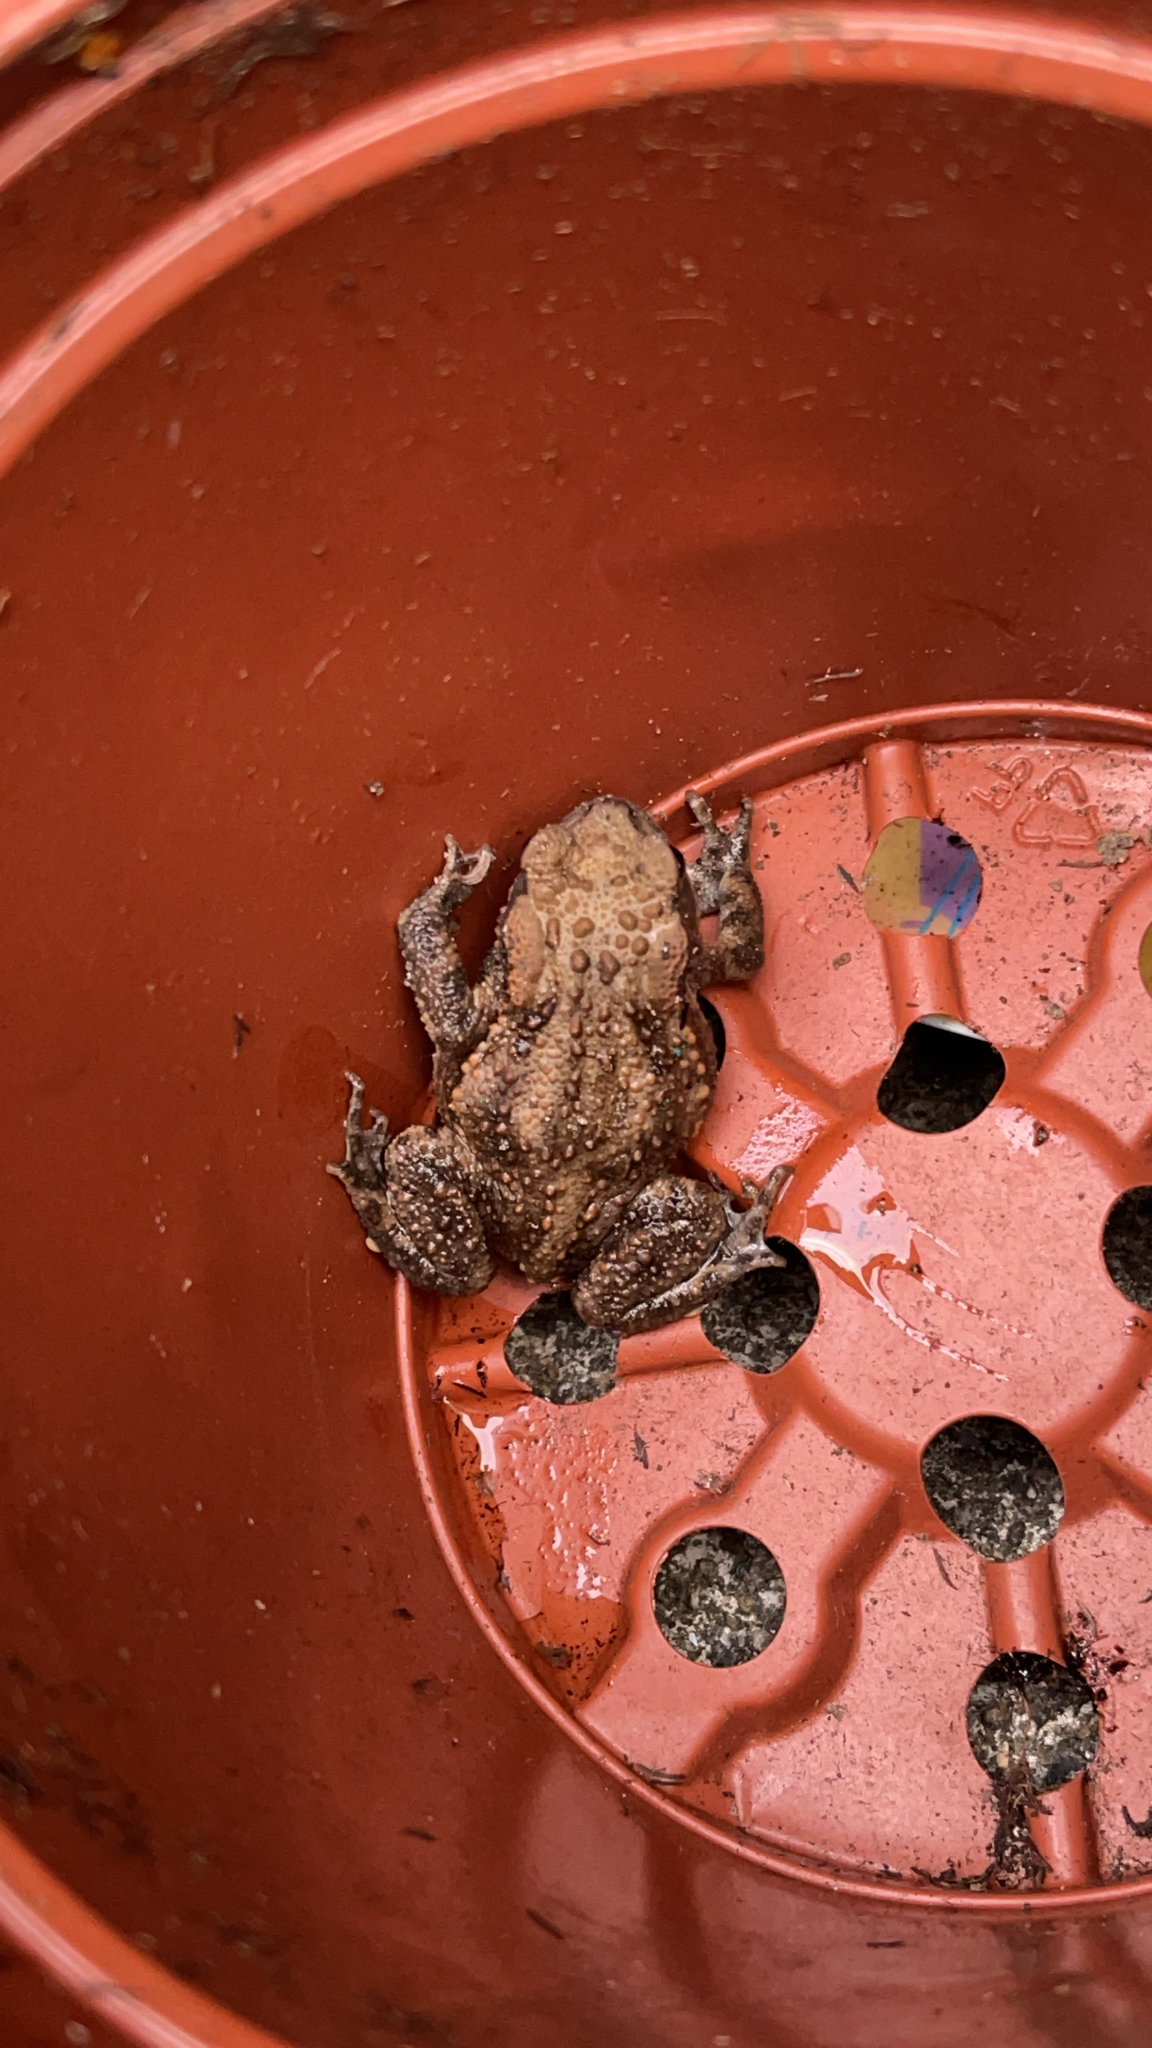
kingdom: Animalia
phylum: Chordata
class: Amphibia
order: Anura
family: Bufonidae
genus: Bufo
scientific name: Bufo bufo
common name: Common toad
